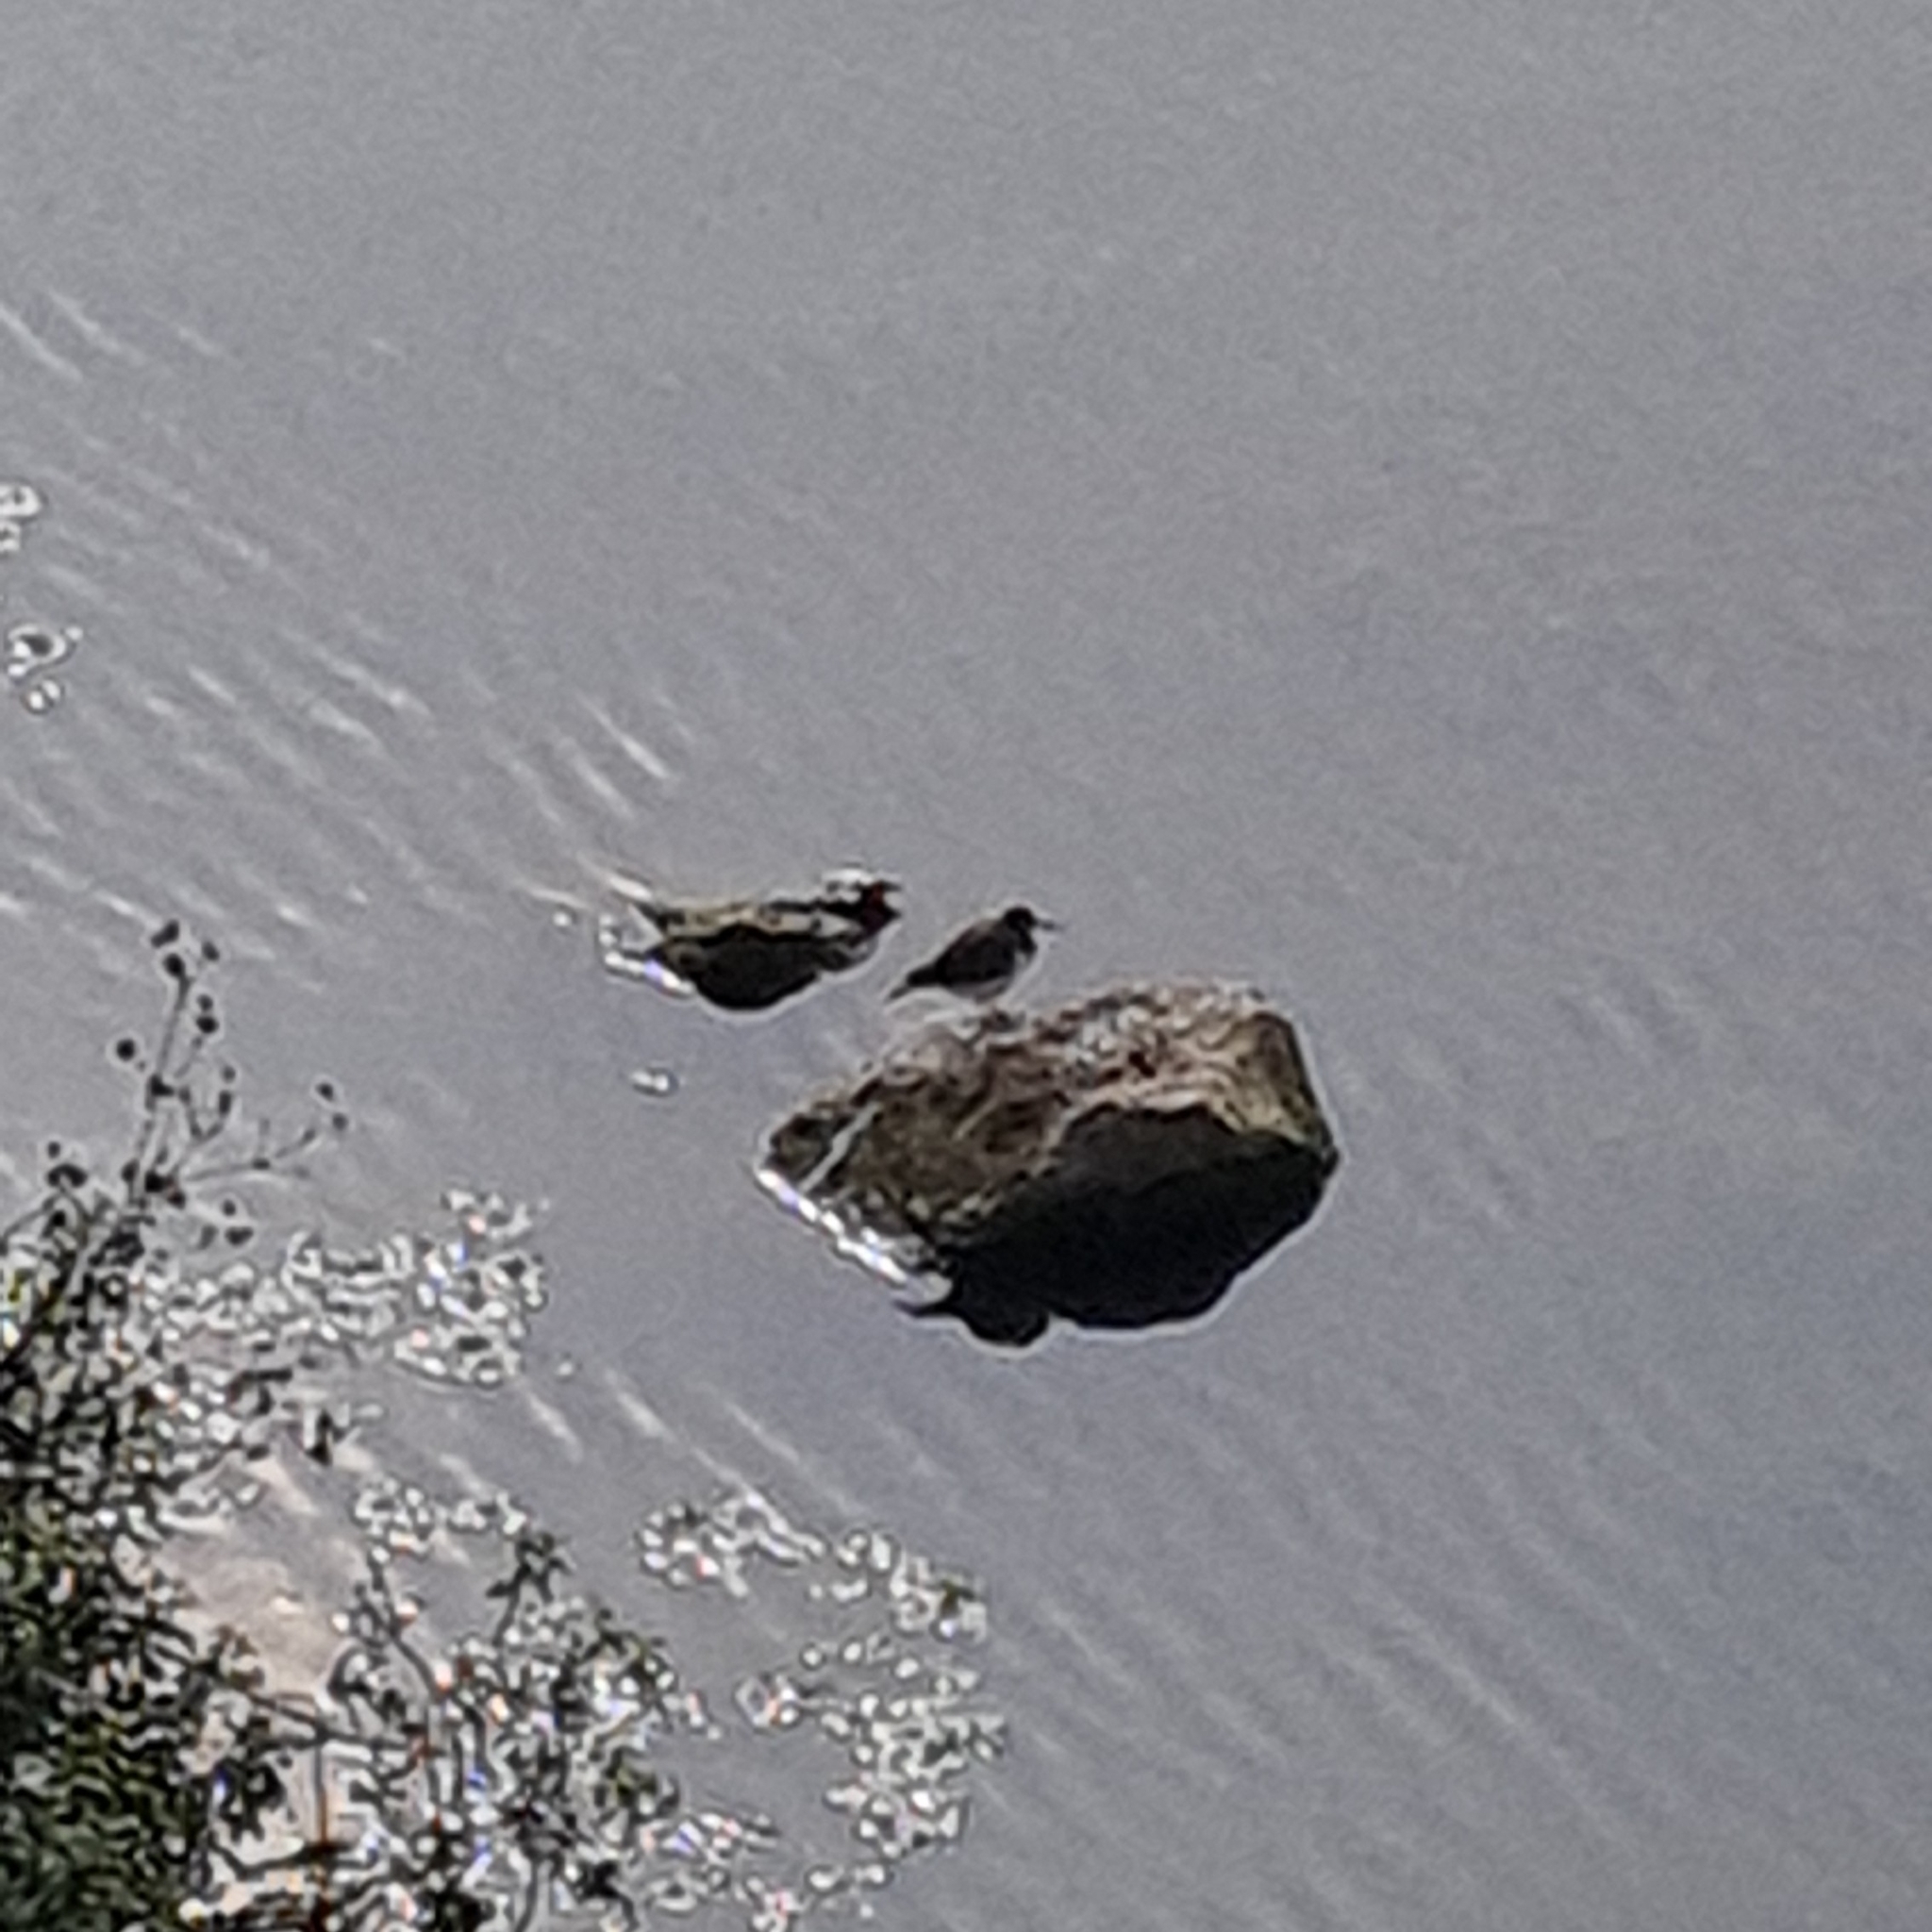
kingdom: Animalia
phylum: Chordata
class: Aves
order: Charadriiformes
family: Scolopacidae
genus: Actitis
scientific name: Actitis hypoleucos
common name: Common sandpiper
